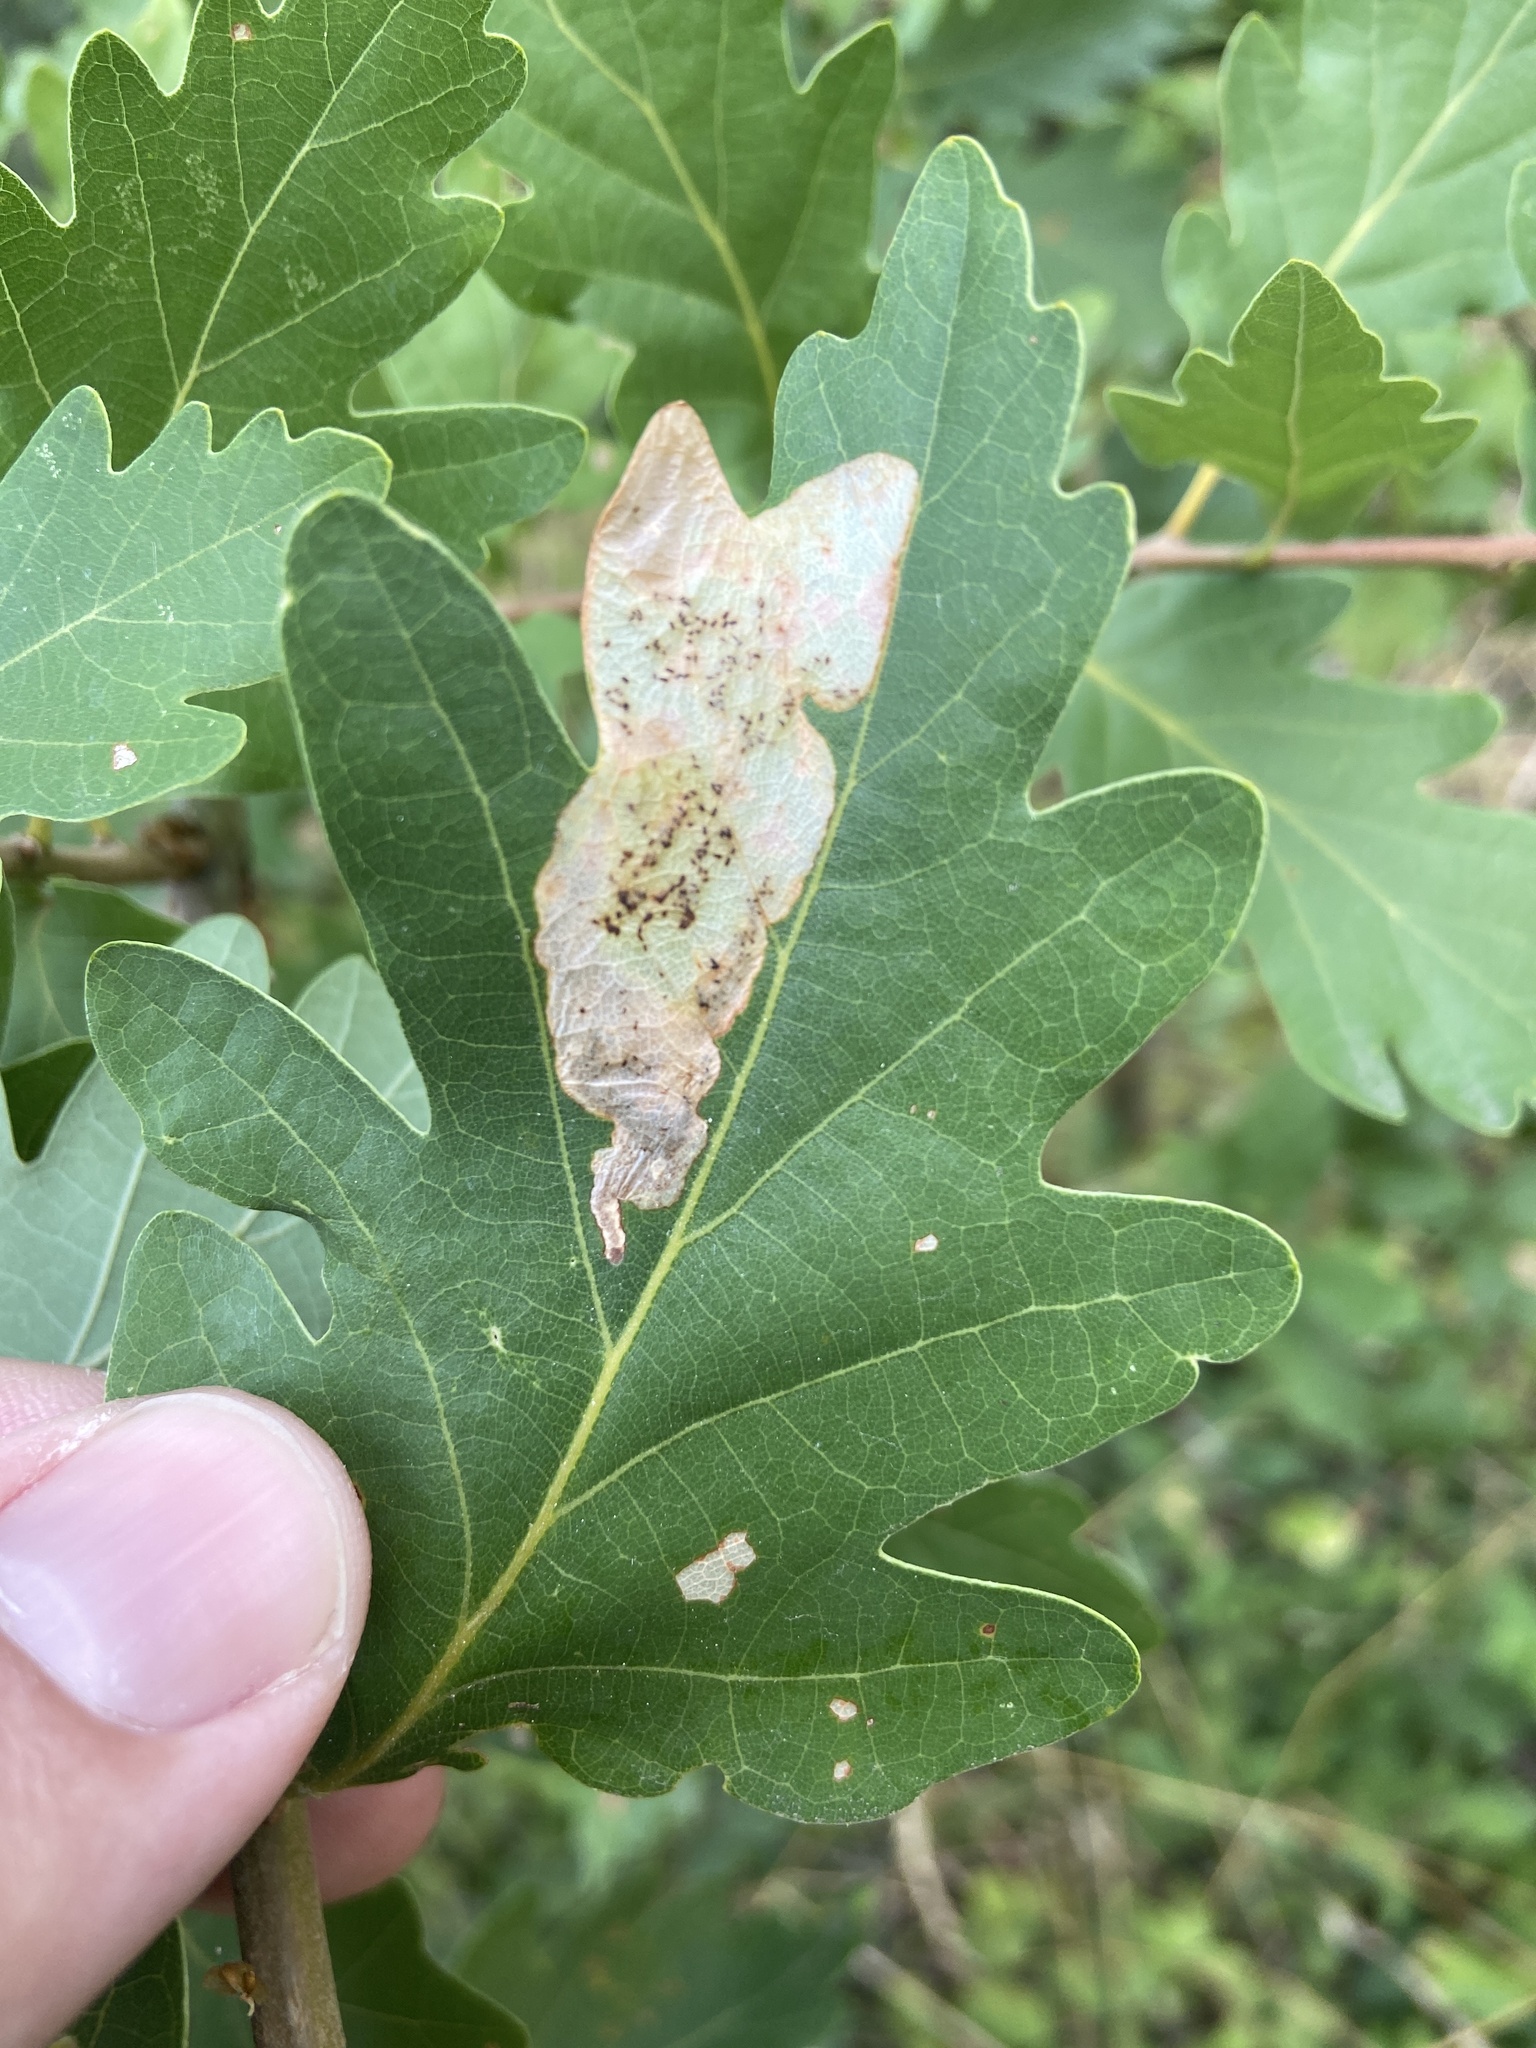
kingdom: Animalia
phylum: Arthropoda
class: Insecta
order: Hymenoptera
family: Tenthredinidae
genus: Profenusa
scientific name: Profenusa pygmaea
